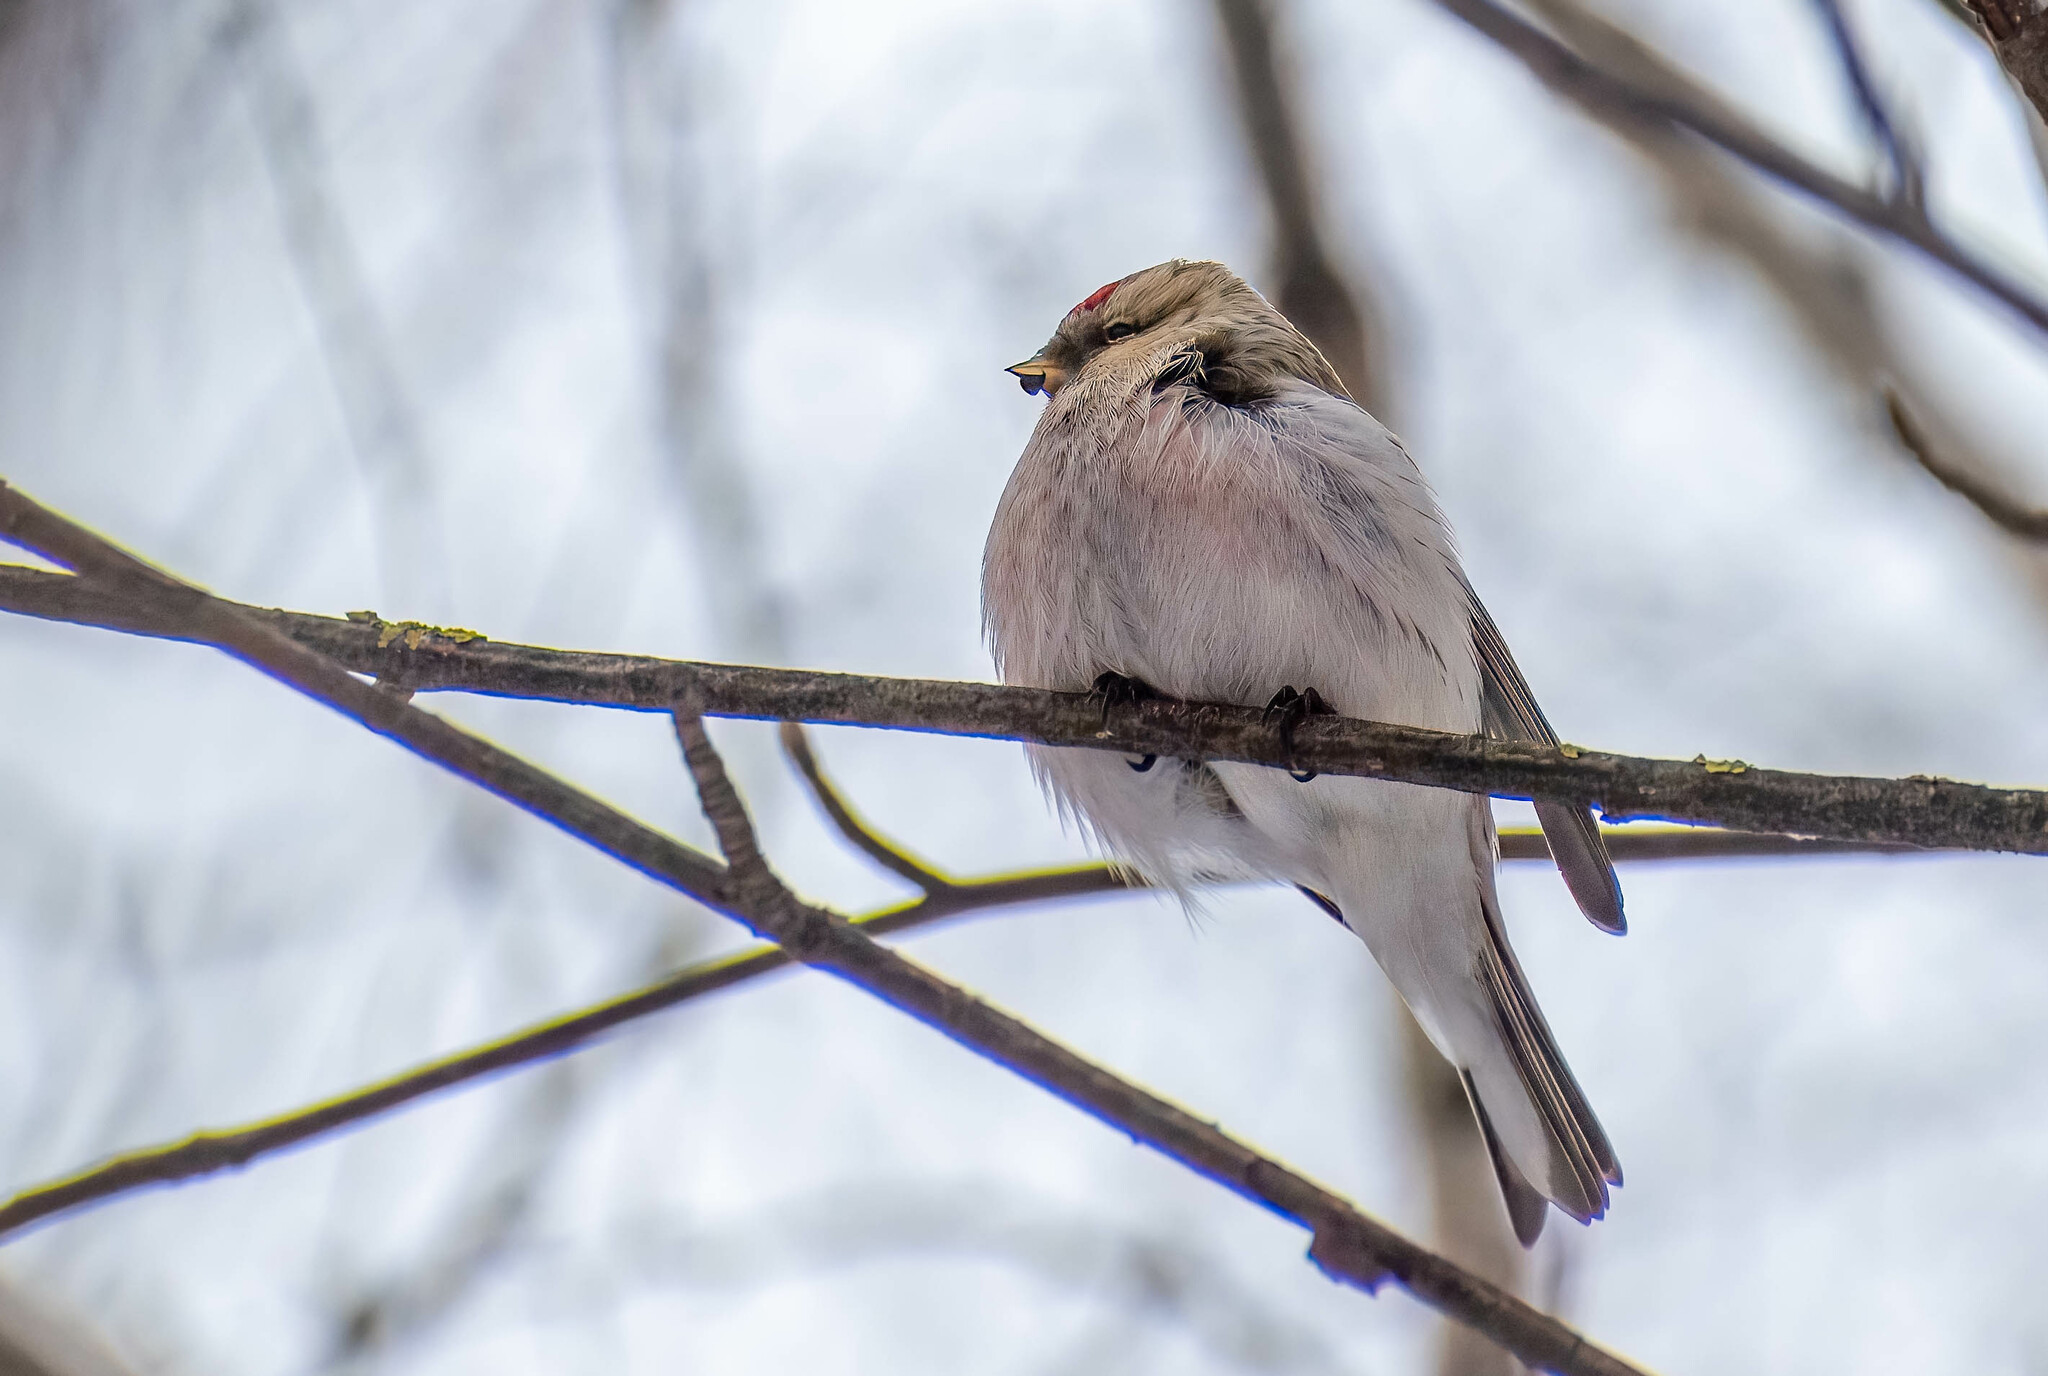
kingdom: Animalia
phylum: Chordata
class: Aves
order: Passeriformes
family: Fringillidae
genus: Acanthis
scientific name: Acanthis hornemanni
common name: Arctic redpoll
